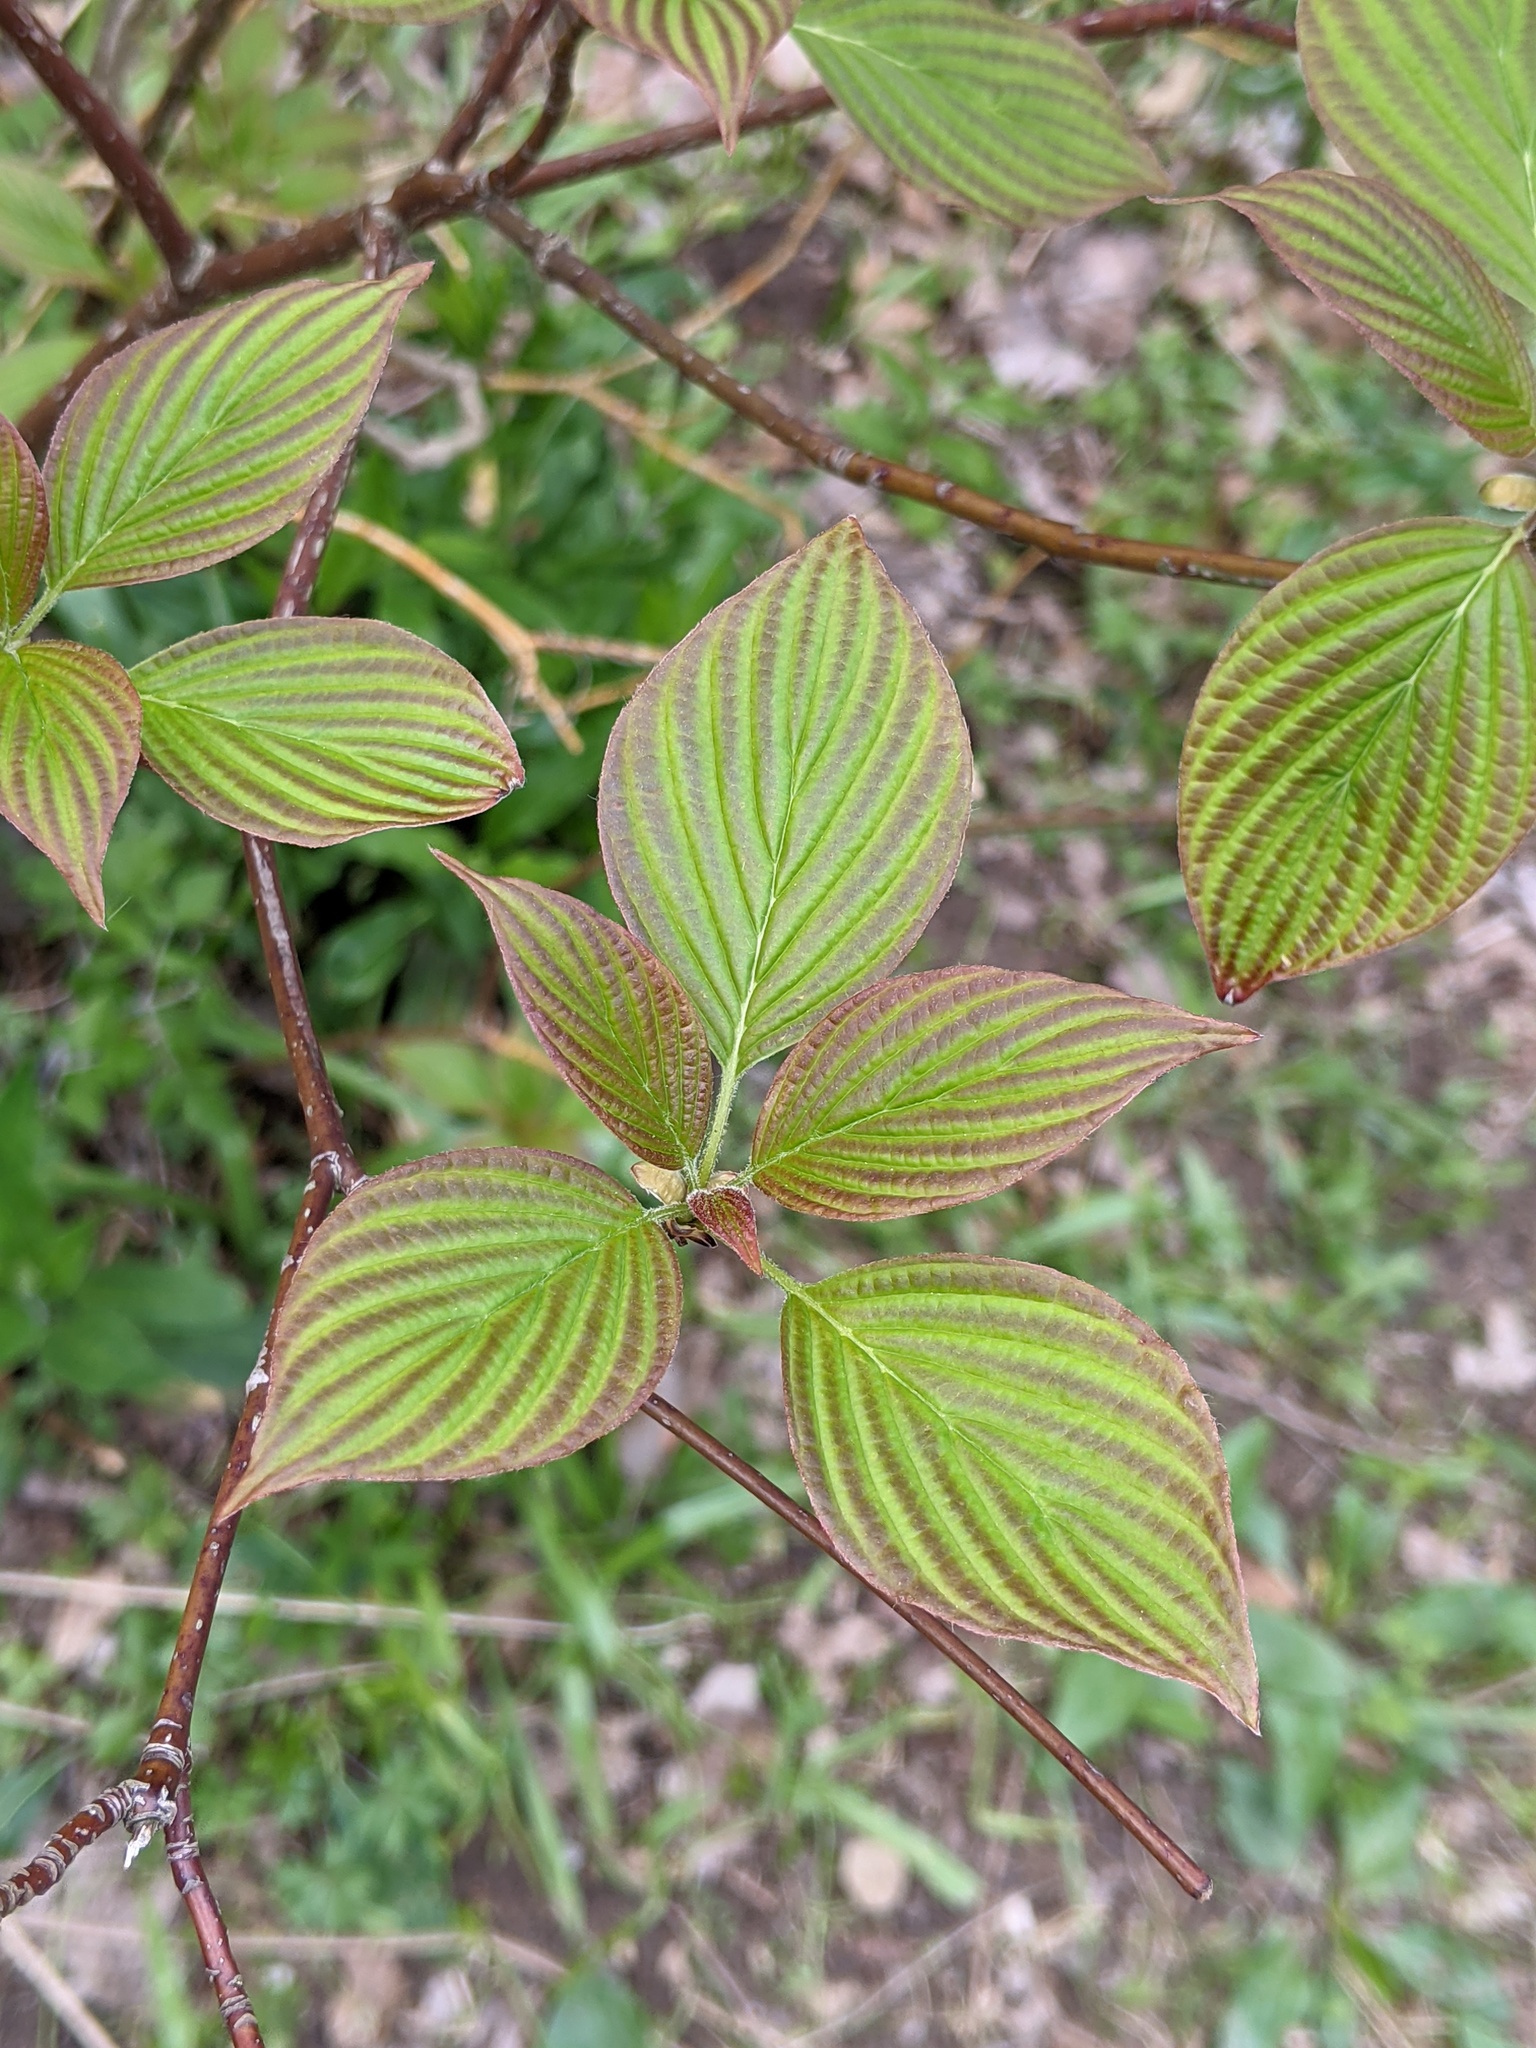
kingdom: Plantae
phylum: Tracheophyta
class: Magnoliopsida
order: Cornales
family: Cornaceae
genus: Cornus
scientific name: Cornus alternifolia
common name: Pagoda dogwood
